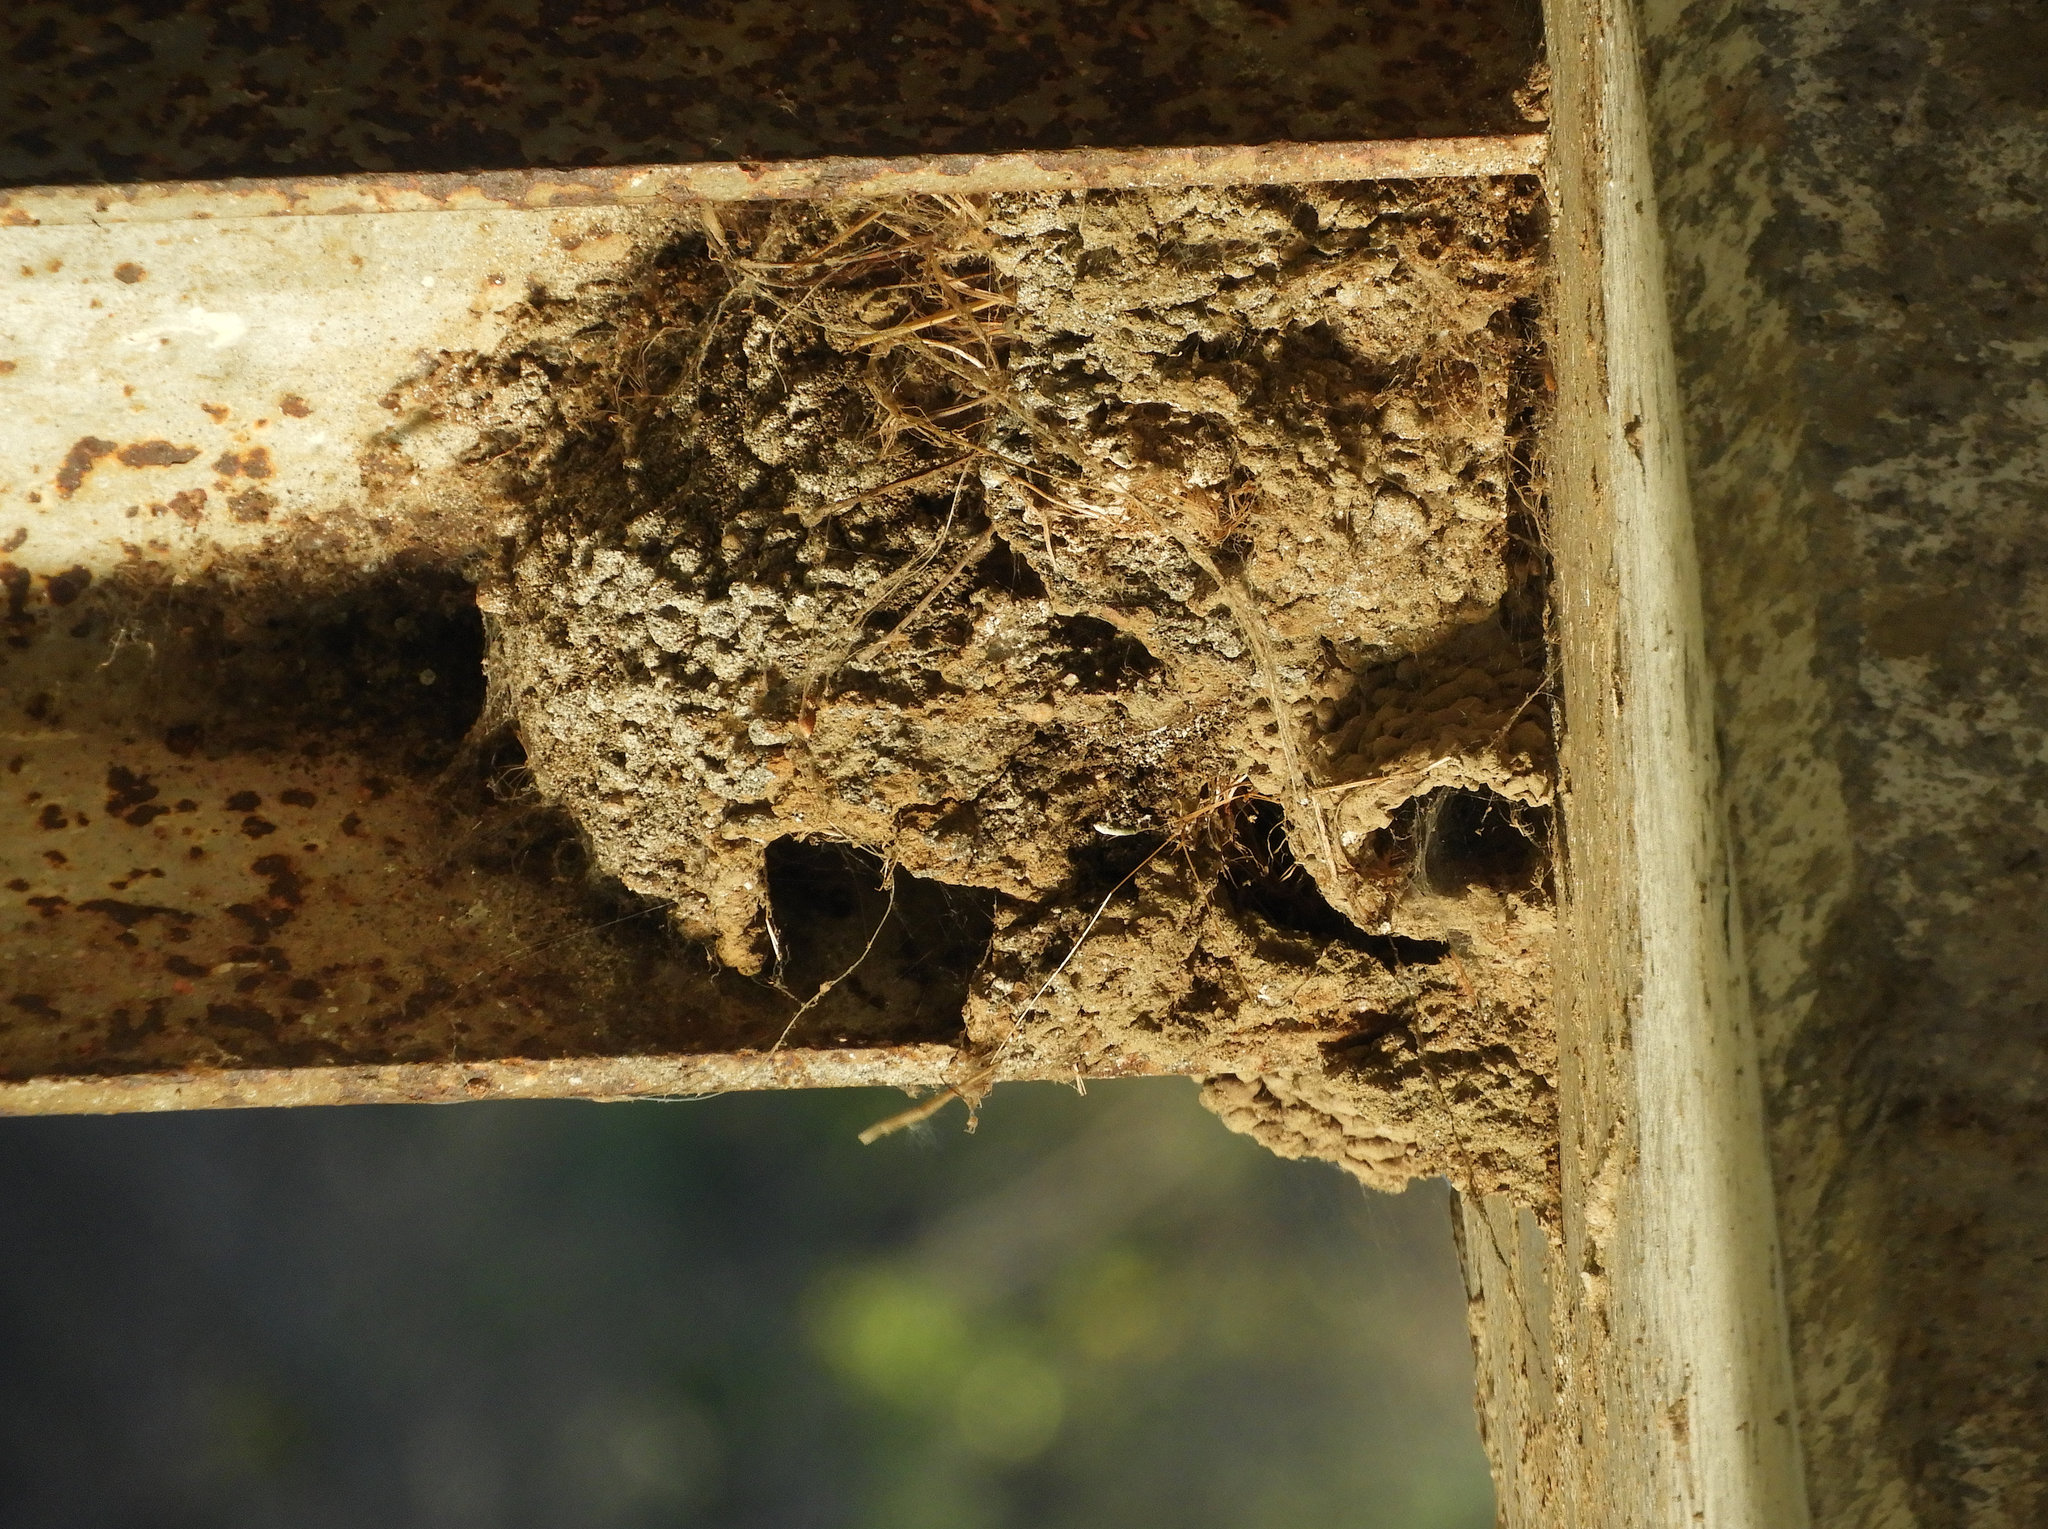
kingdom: Animalia
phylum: Chordata
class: Aves
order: Passeriformes
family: Hirundinidae
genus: Petrochelidon
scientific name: Petrochelidon pyrrhonota
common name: American cliff swallow
